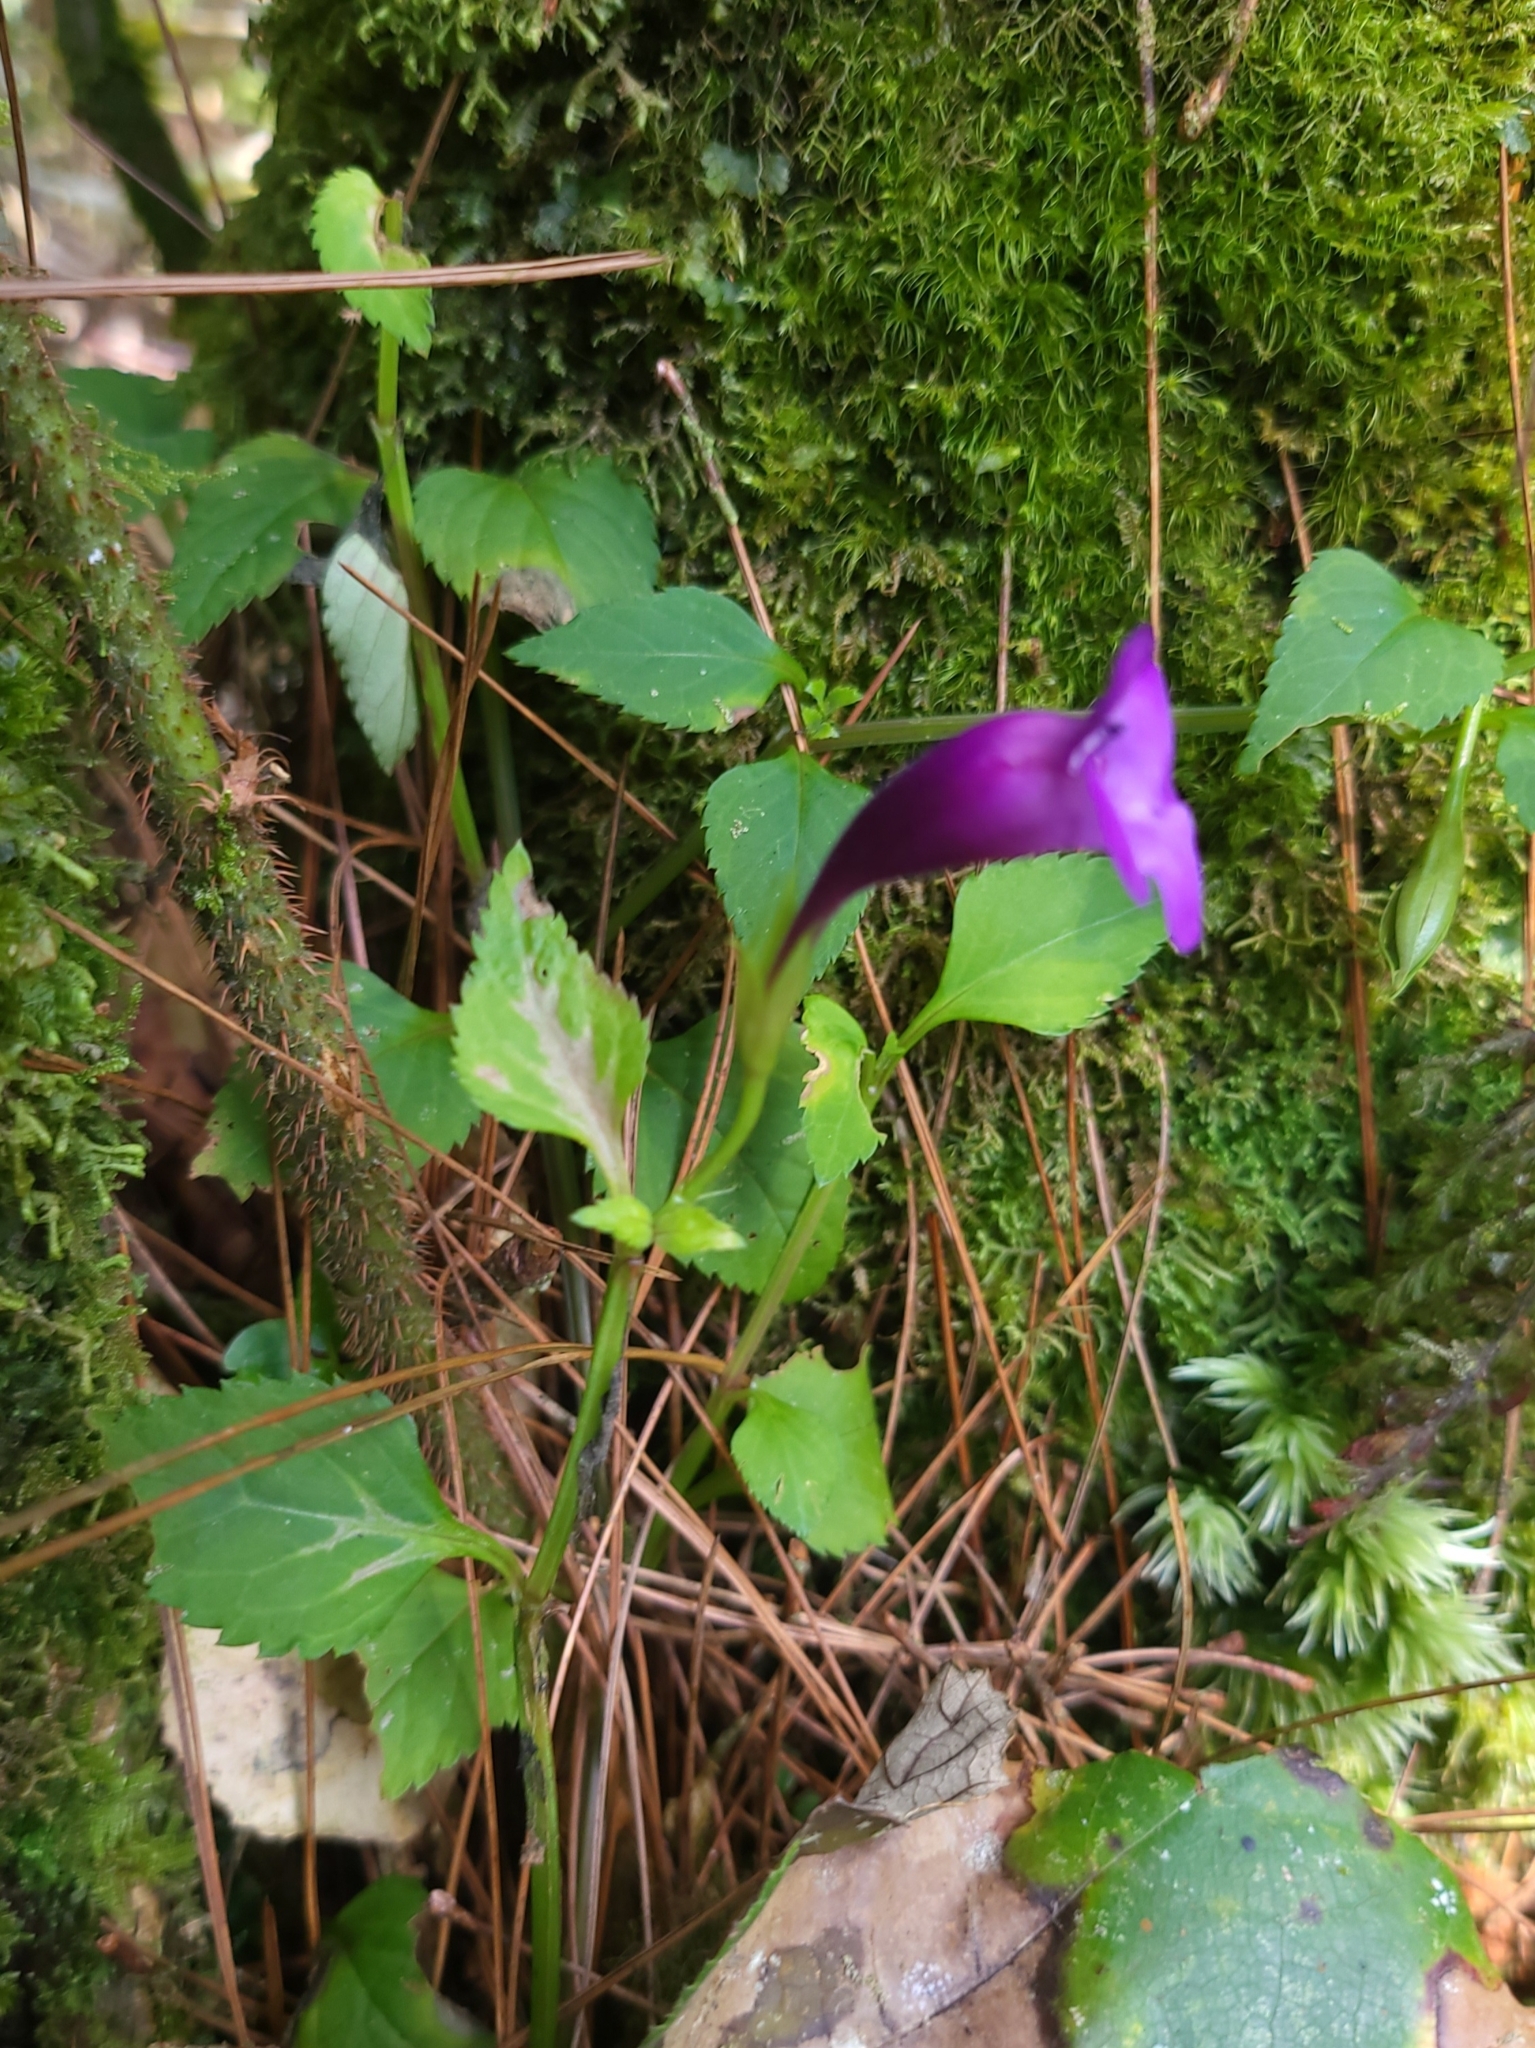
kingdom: Plantae
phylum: Tracheophyta
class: Magnoliopsida
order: Lamiales
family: Linderniaceae
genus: Torenia
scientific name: Torenia concolor
